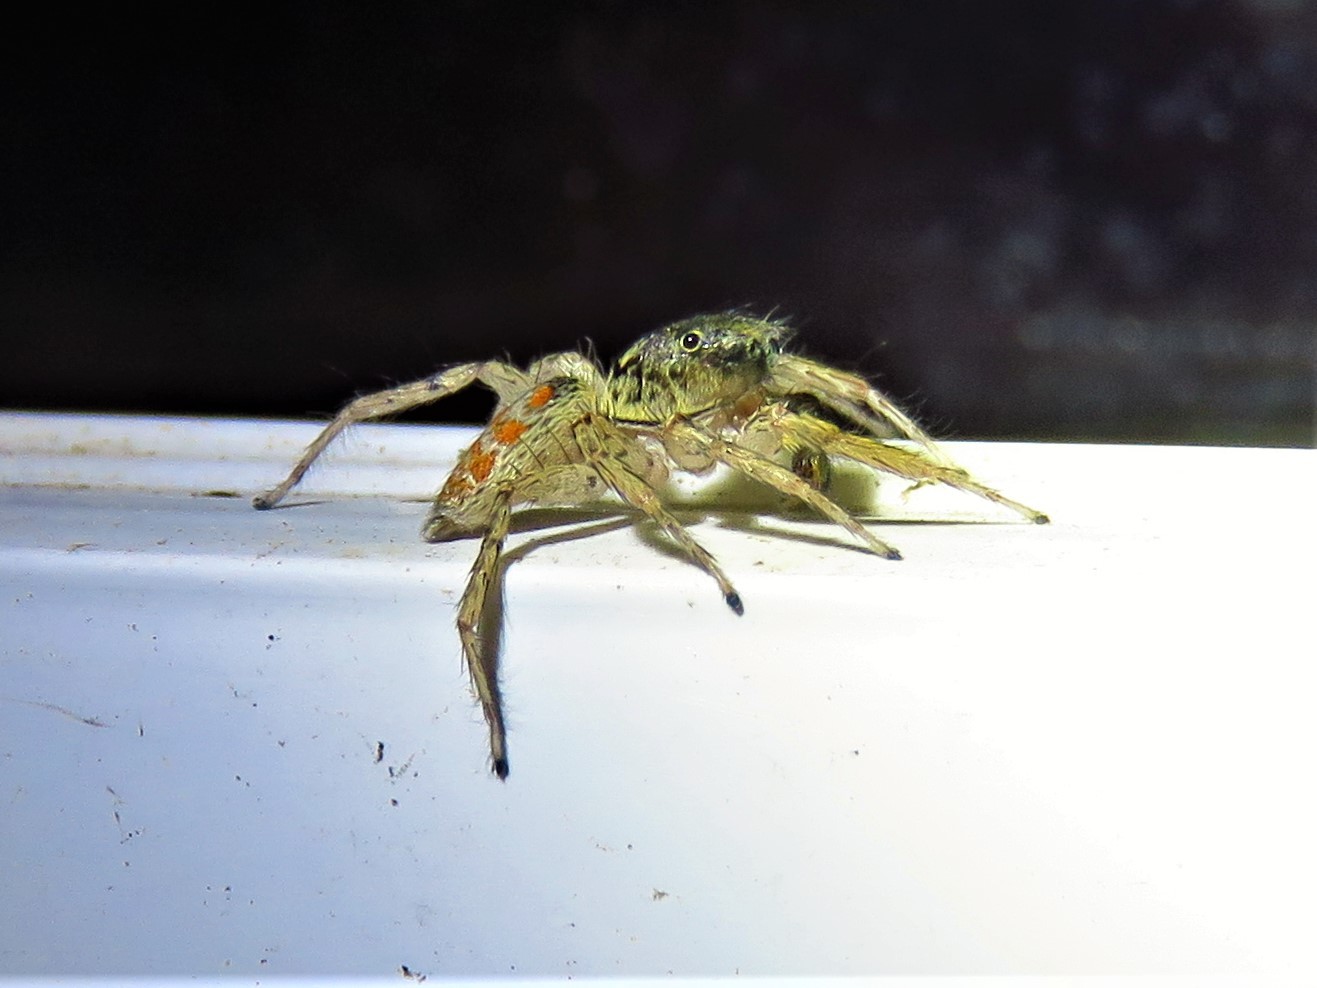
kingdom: Animalia
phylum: Arthropoda
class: Arachnida
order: Araneae
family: Salticidae
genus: Maevia
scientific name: Maevia inclemens
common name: Dimorphic jumper
